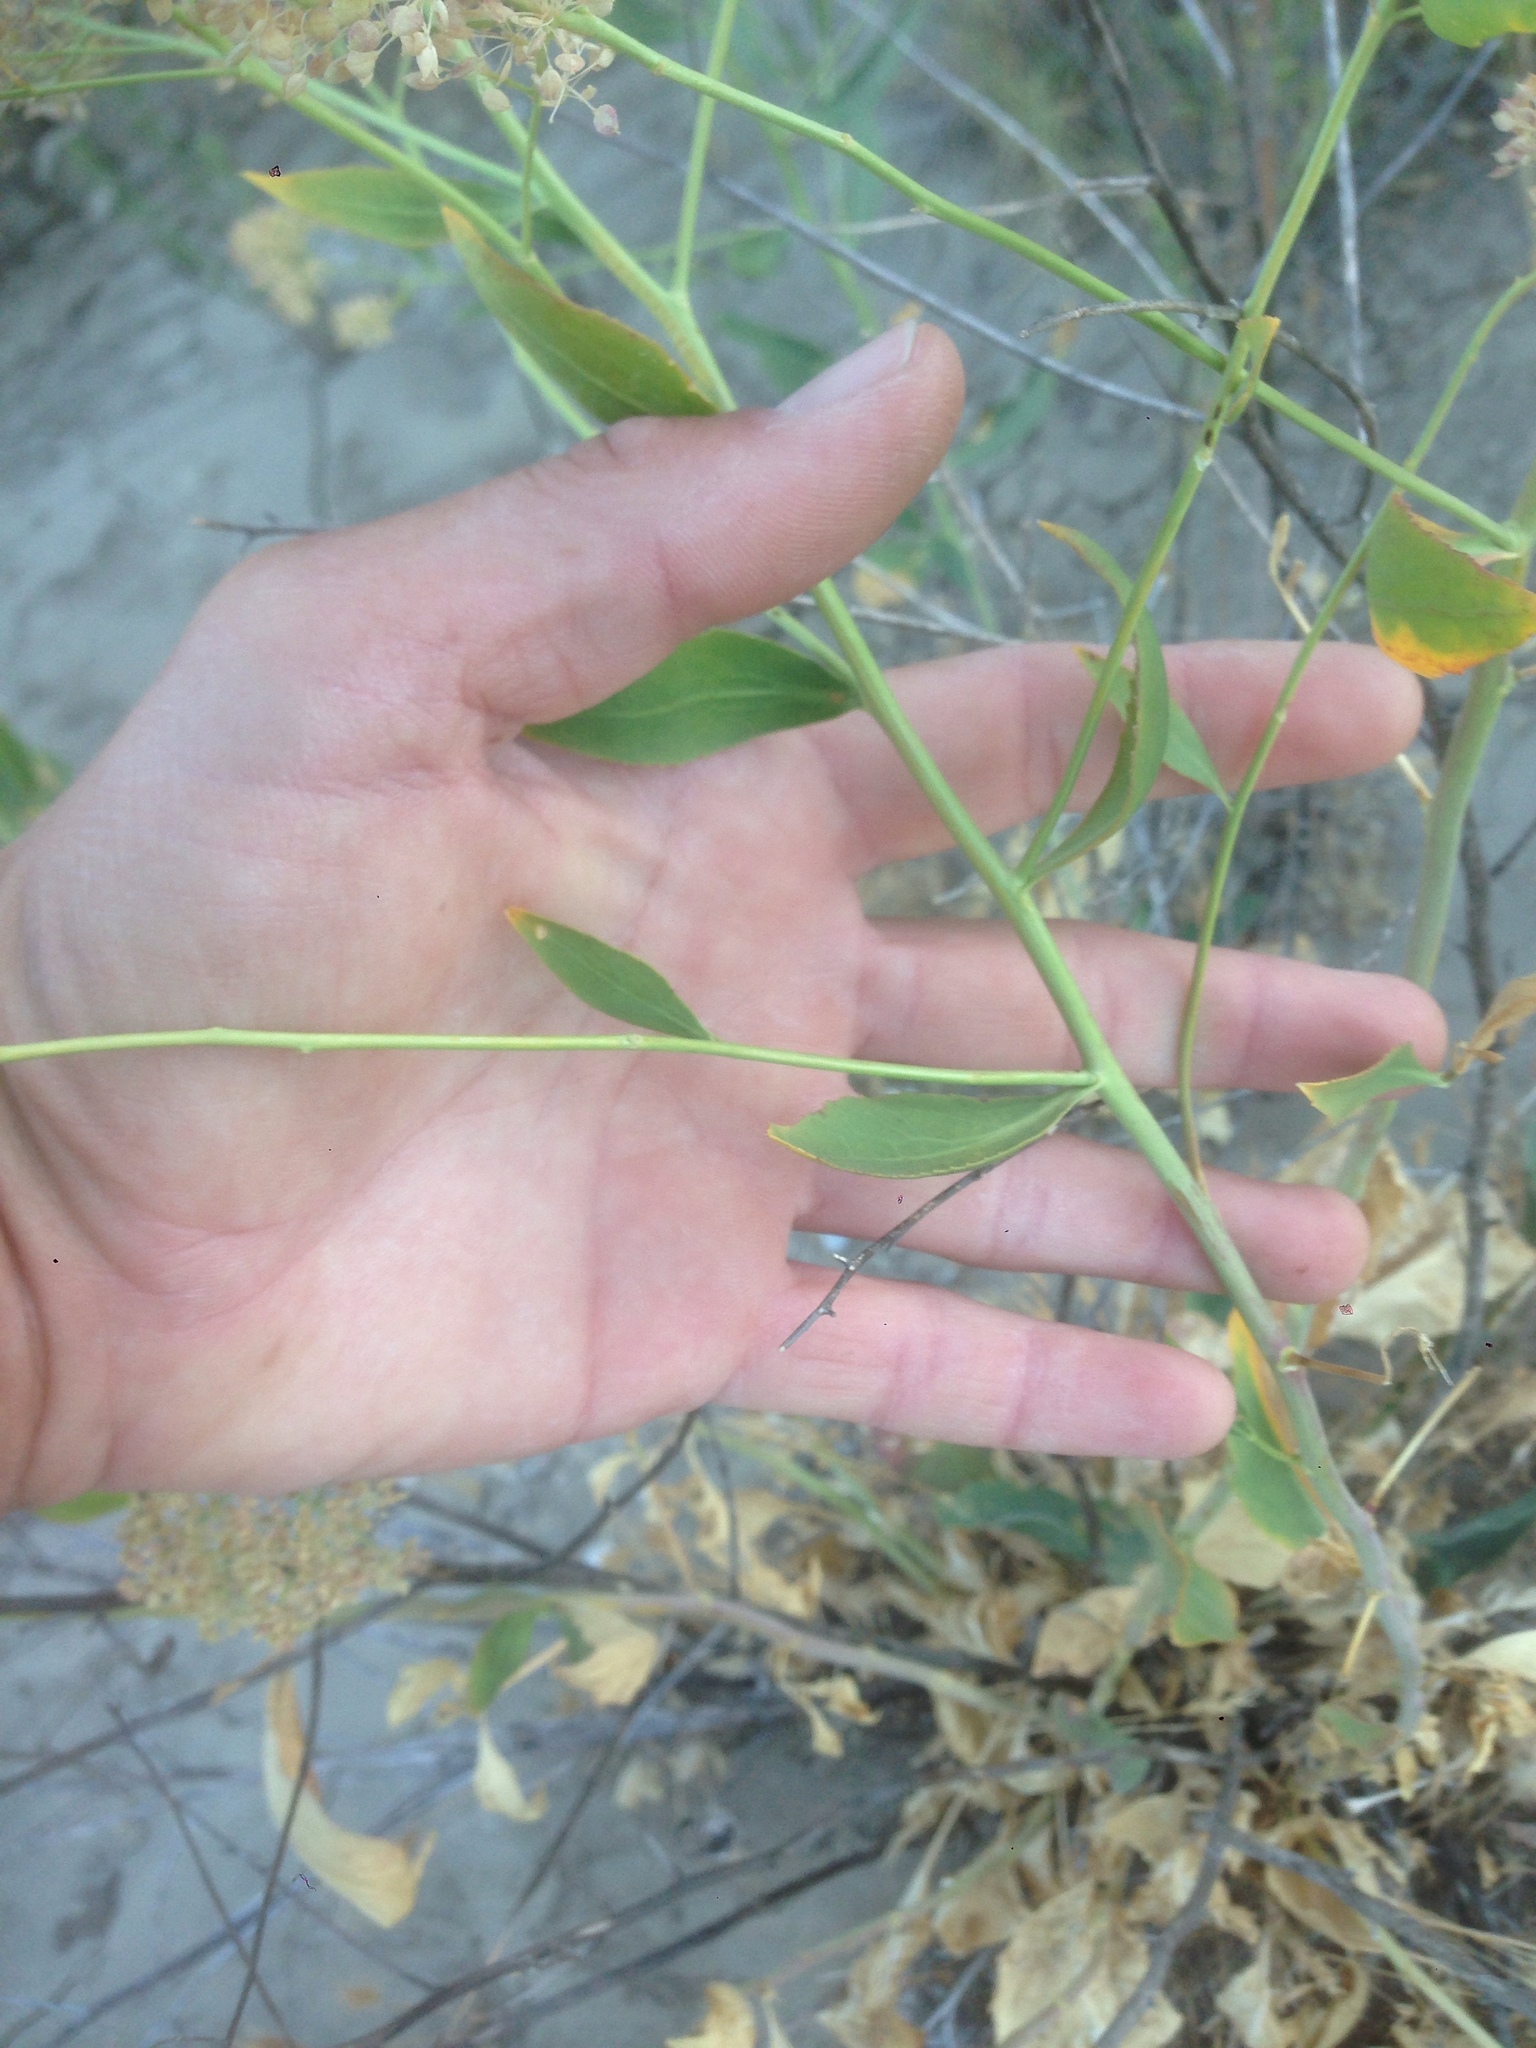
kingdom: Plantae
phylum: Tracheophyta
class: Magnoliopsida
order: Brassicales
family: Brassicaceae
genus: Lepidium
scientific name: Lepidium latifolium
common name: Dittander
